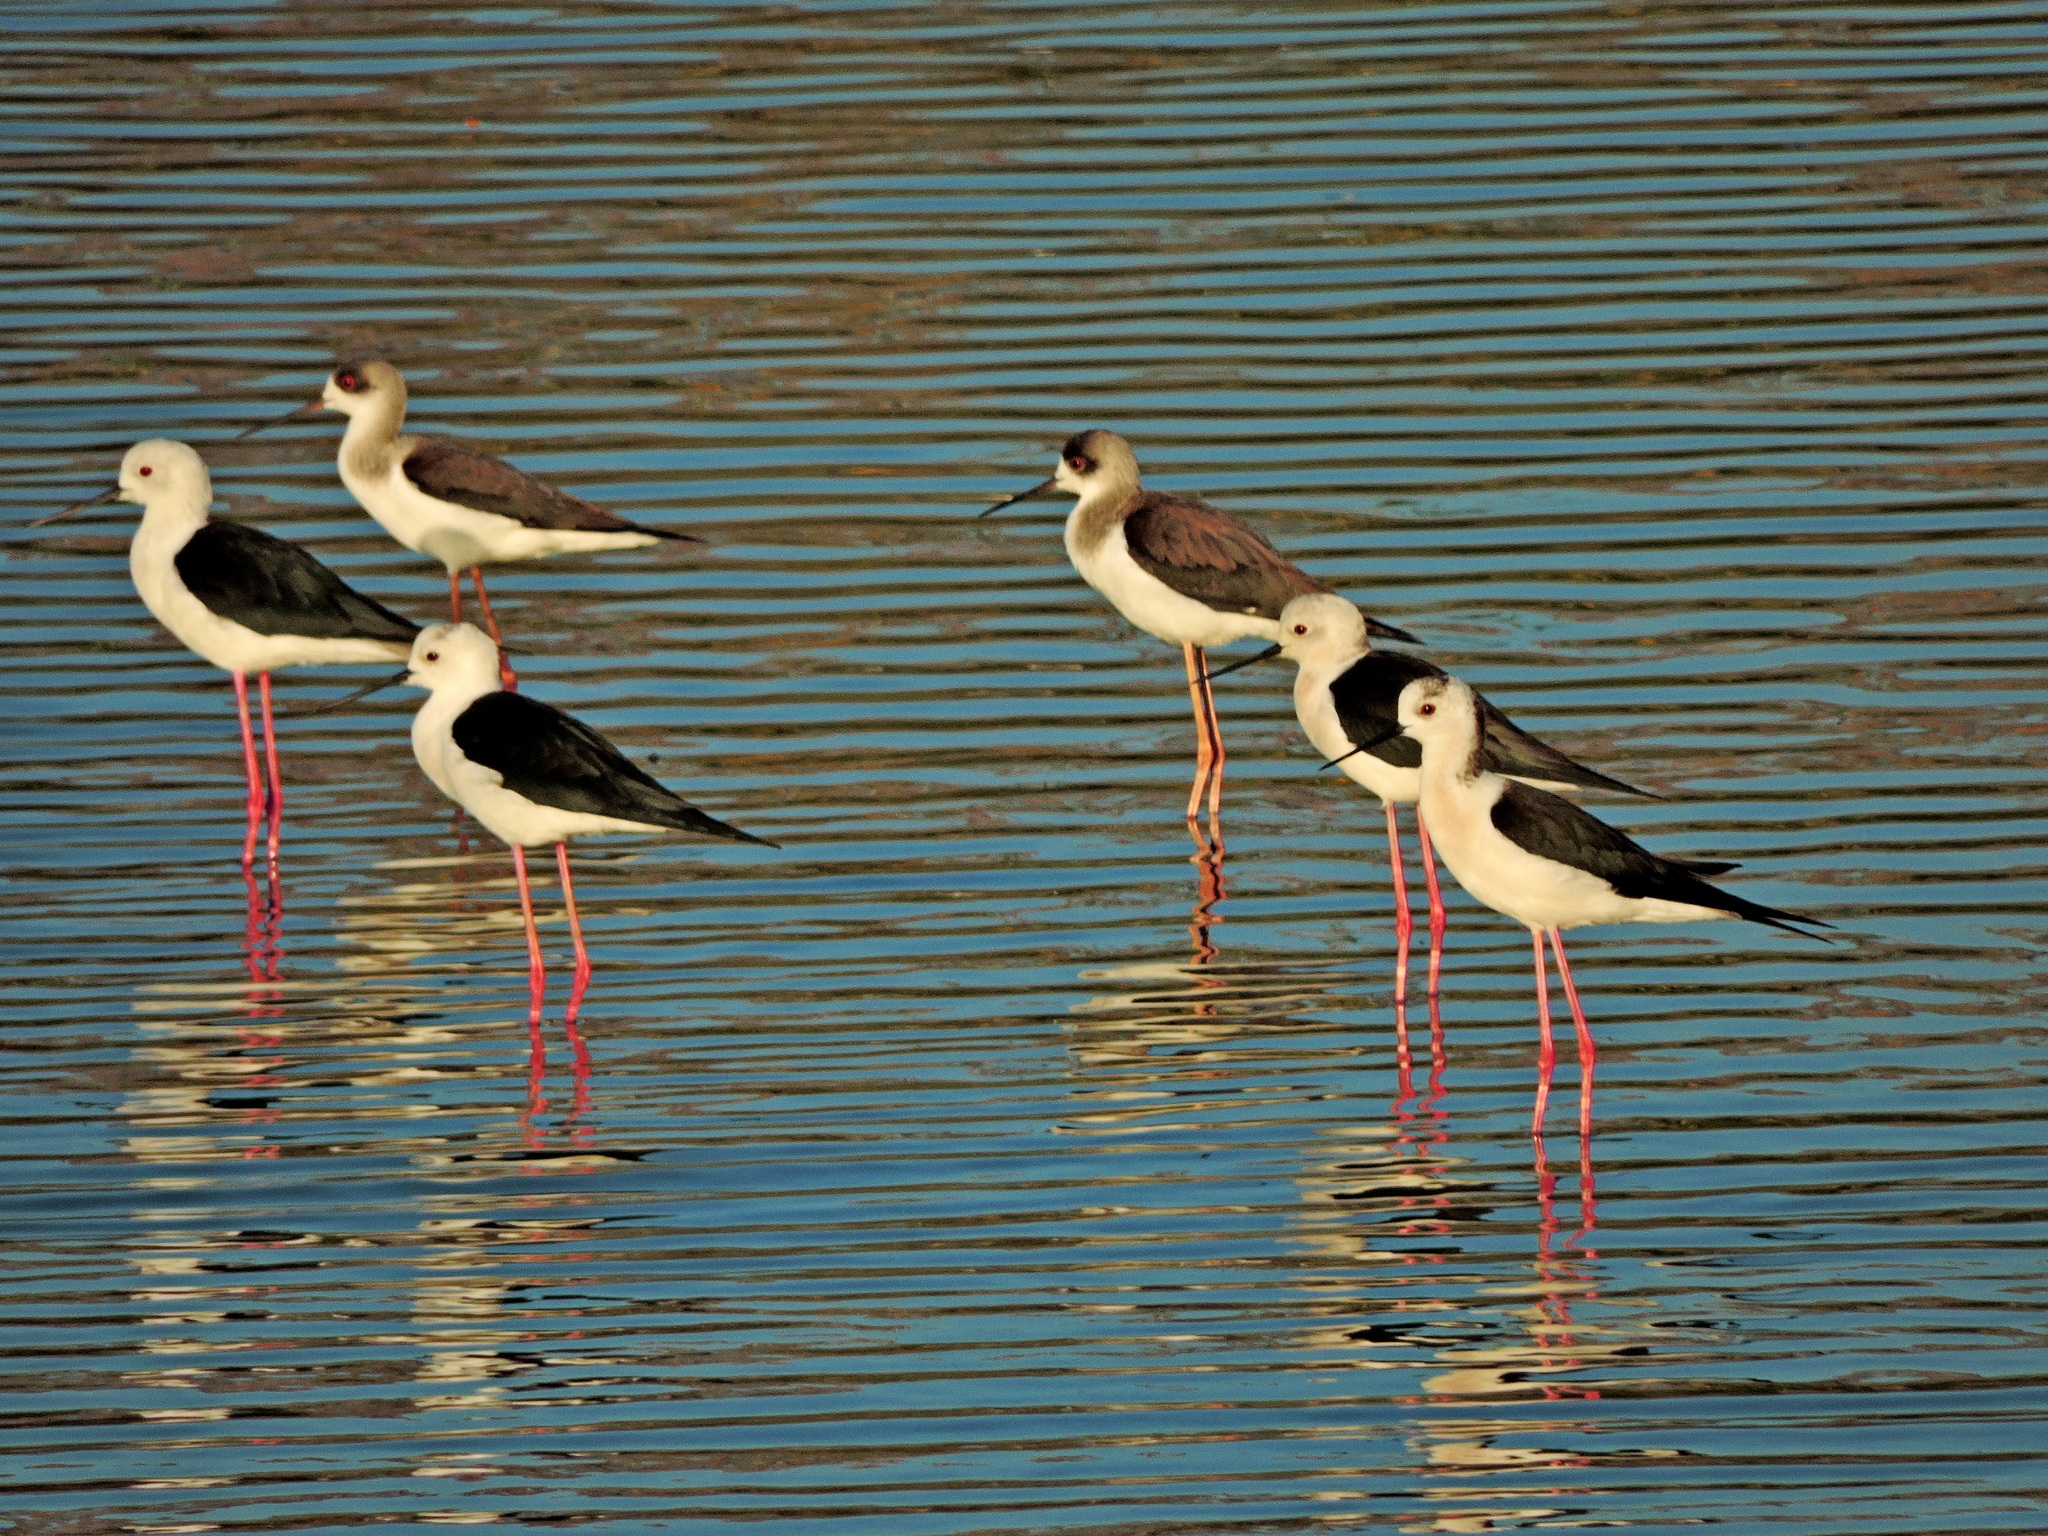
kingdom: Animalia
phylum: Chordata
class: Aves
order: Charadriiformes
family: Recurvirostridae
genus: Himantopus
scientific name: Himantopus himantopus
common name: Black-winged stilt
